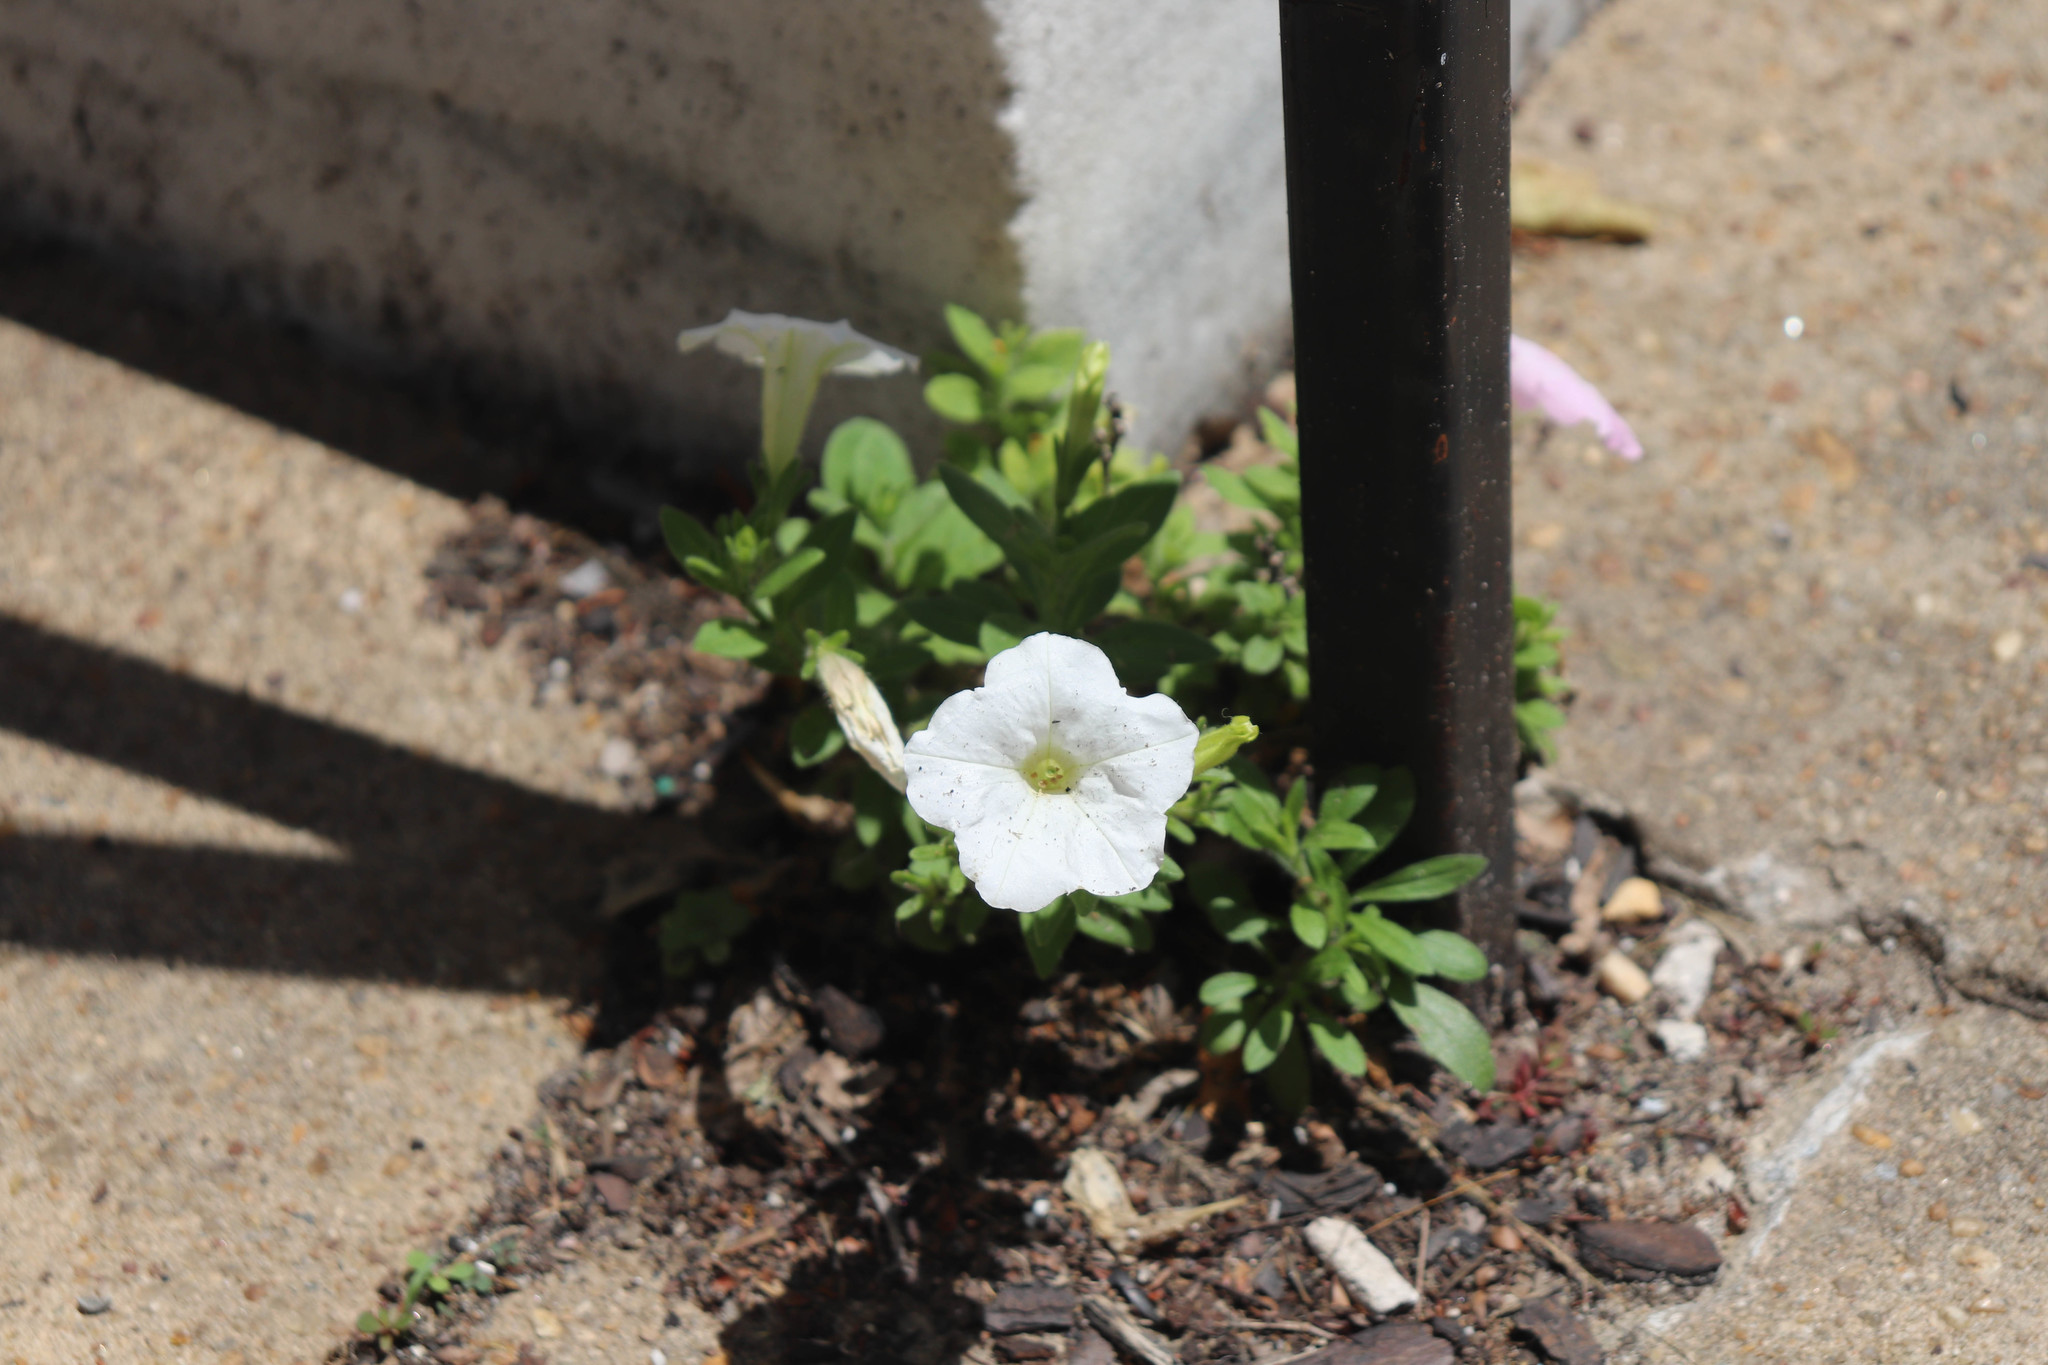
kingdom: Plantae
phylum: Tracheophyta
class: Magnoliopsida
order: Solanales
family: Solanaceae
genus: Petunia
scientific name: Petunia atkinsiana
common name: Petunia
